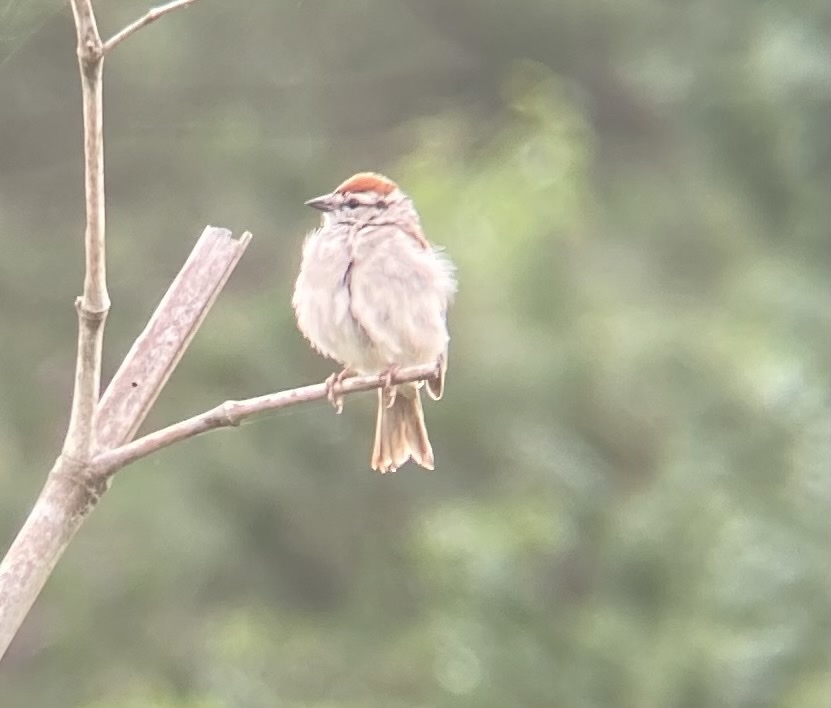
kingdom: Animalia
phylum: Chordata
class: Aves
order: Passeriformes
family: Passerellidae
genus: Spizella
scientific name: Spizella passerina
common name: Chipping sparrow
